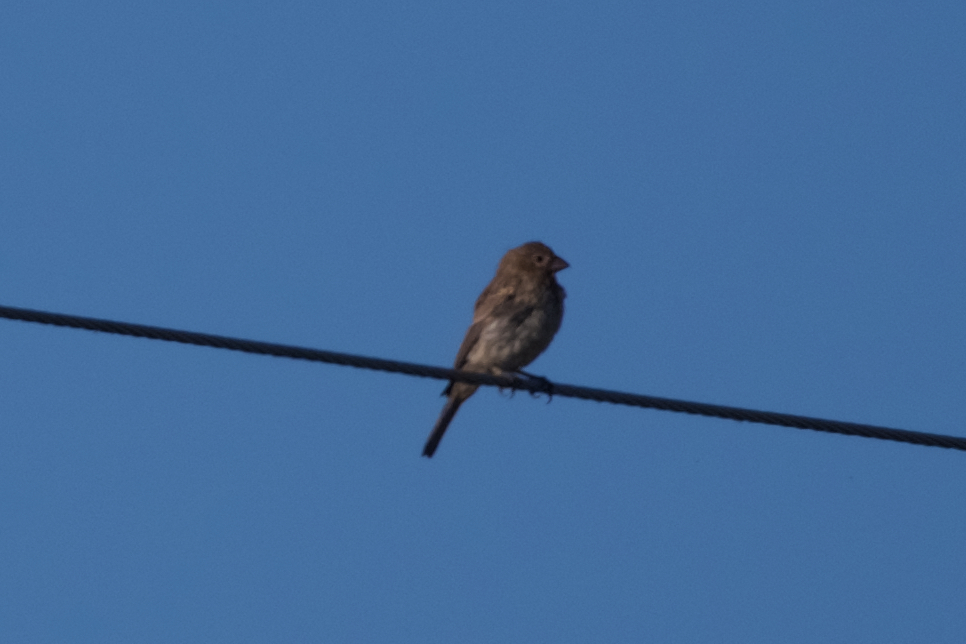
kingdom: Animalia
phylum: Chordata
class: Aves
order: Passeriformes
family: Fringillidae
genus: Haemorhous
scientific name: Haemorhous mexicanus
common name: House finch
